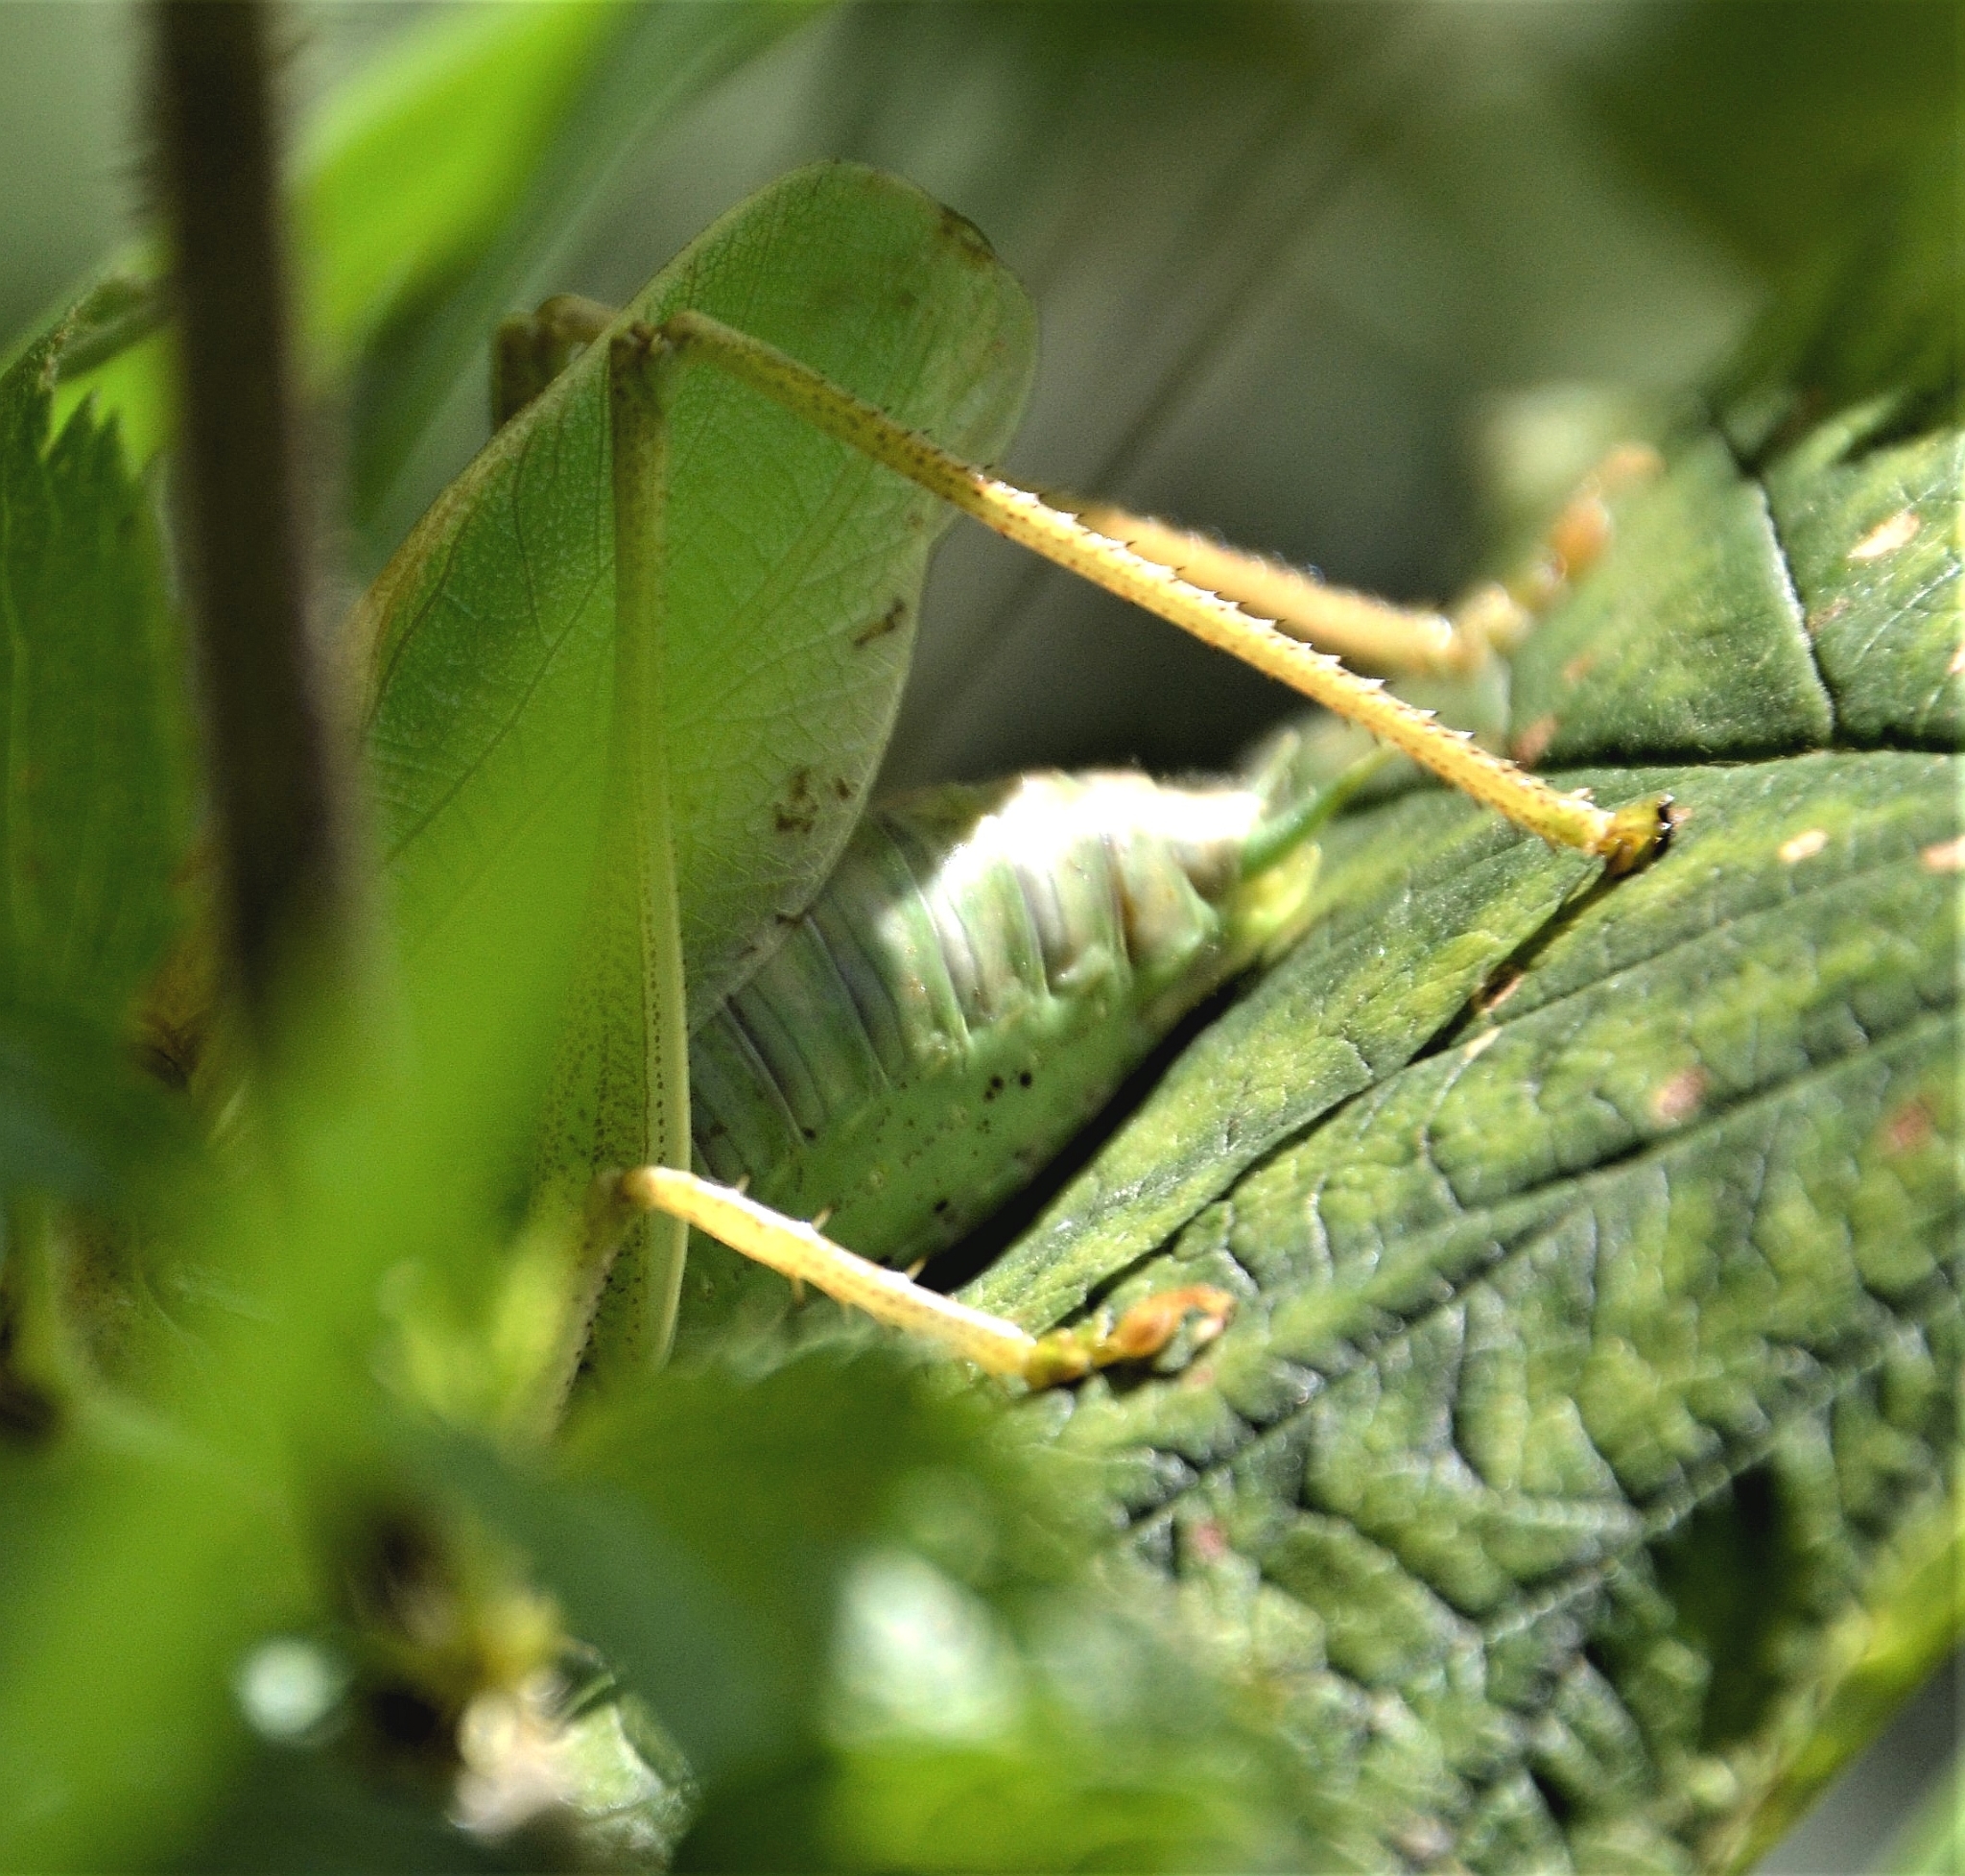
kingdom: Animalia
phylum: Arthropoda
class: Insecta
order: Orthoptera
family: Tettigoniidae
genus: Tettigonia
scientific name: Tettigonia cantans
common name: Upland green bush-cricket
